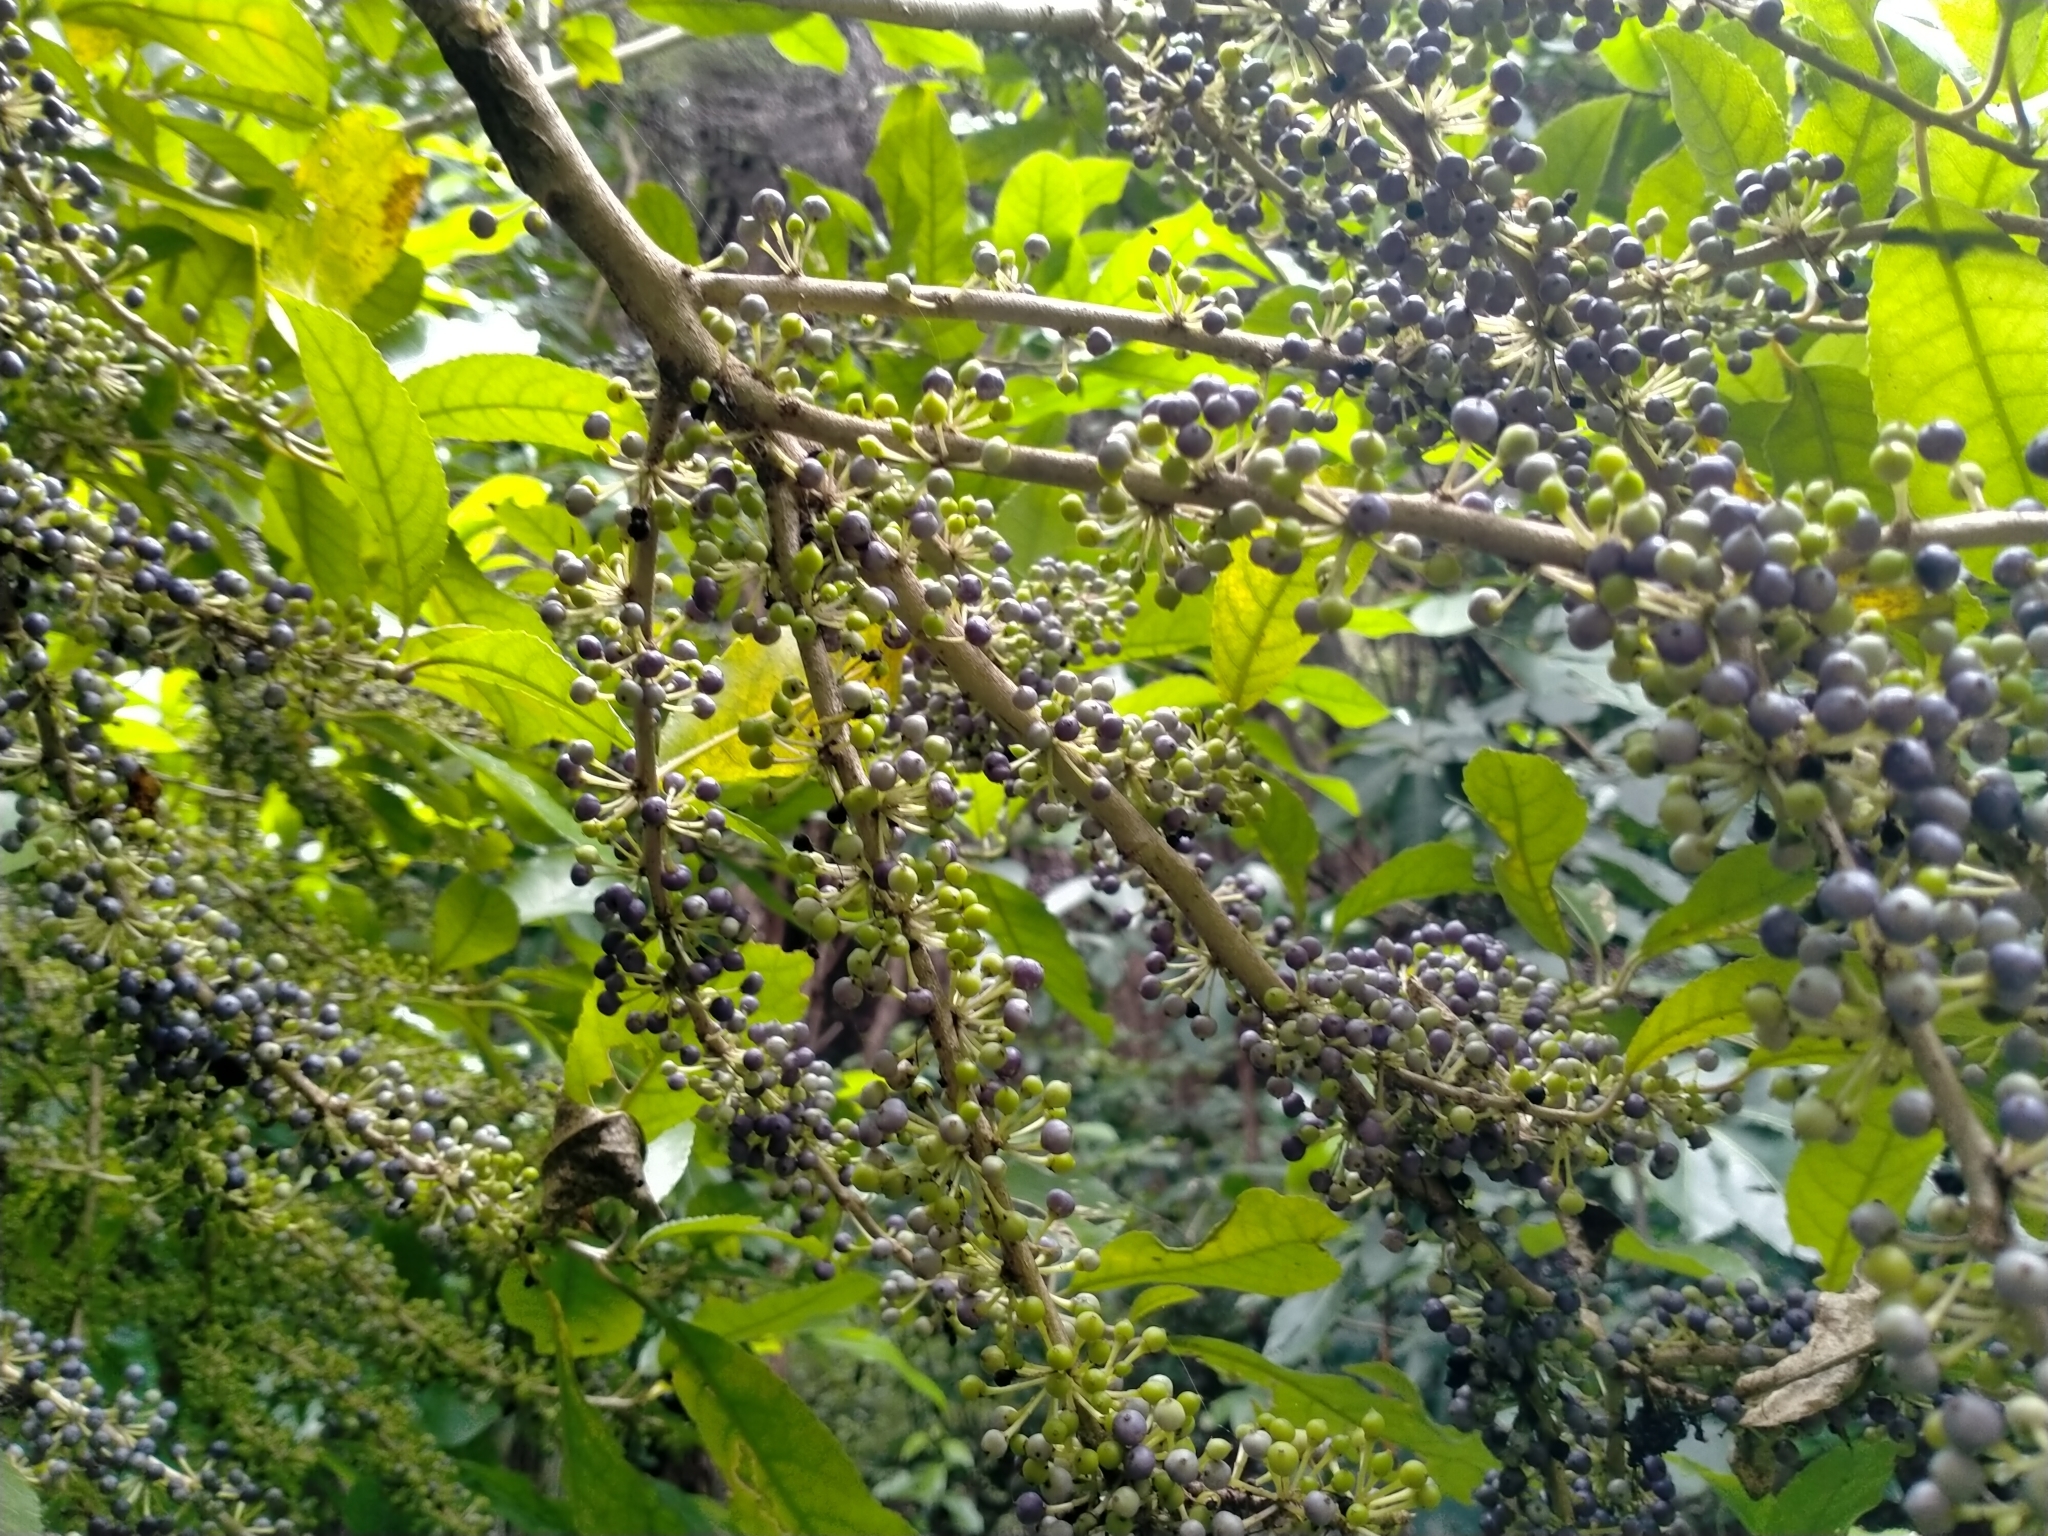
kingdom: Plantae
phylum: Tracheophyta
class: Magnoliopsida
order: Malpighiales
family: Violaceae
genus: Melicytus
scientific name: Melicytus ramiflorus
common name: Mahoe
